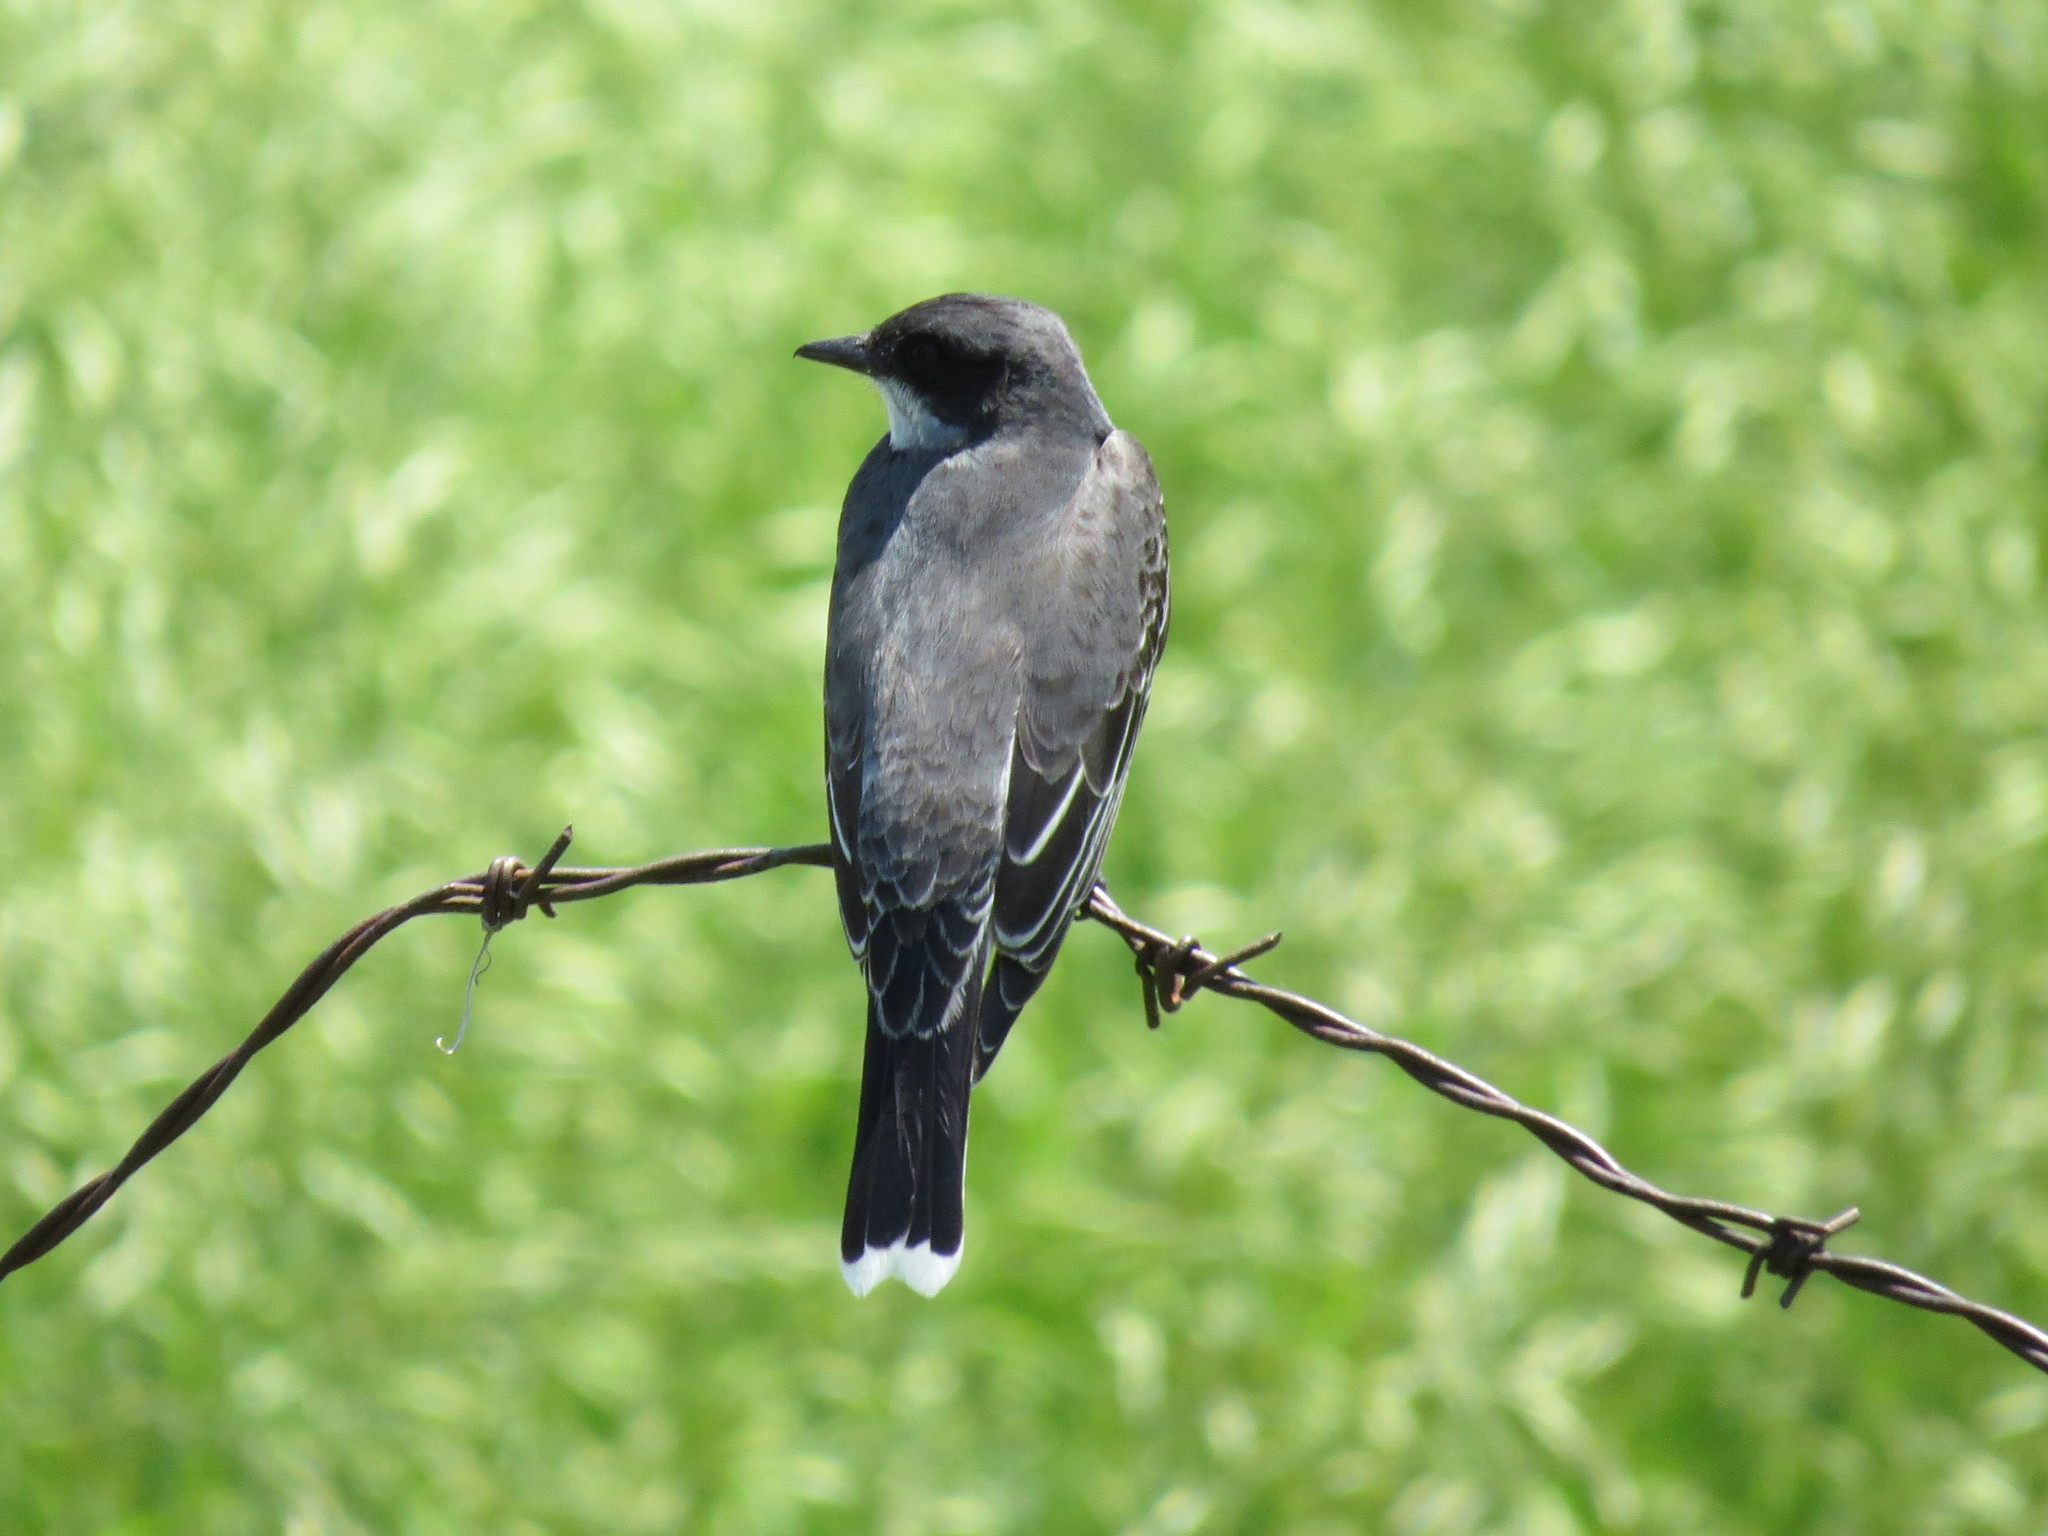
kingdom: Animalia
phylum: Chordata
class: Aves
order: Passeriformes
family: Tyrannidae
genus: Tyrannus
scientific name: Tyrannus tyrannus
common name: Eastern kingbird
